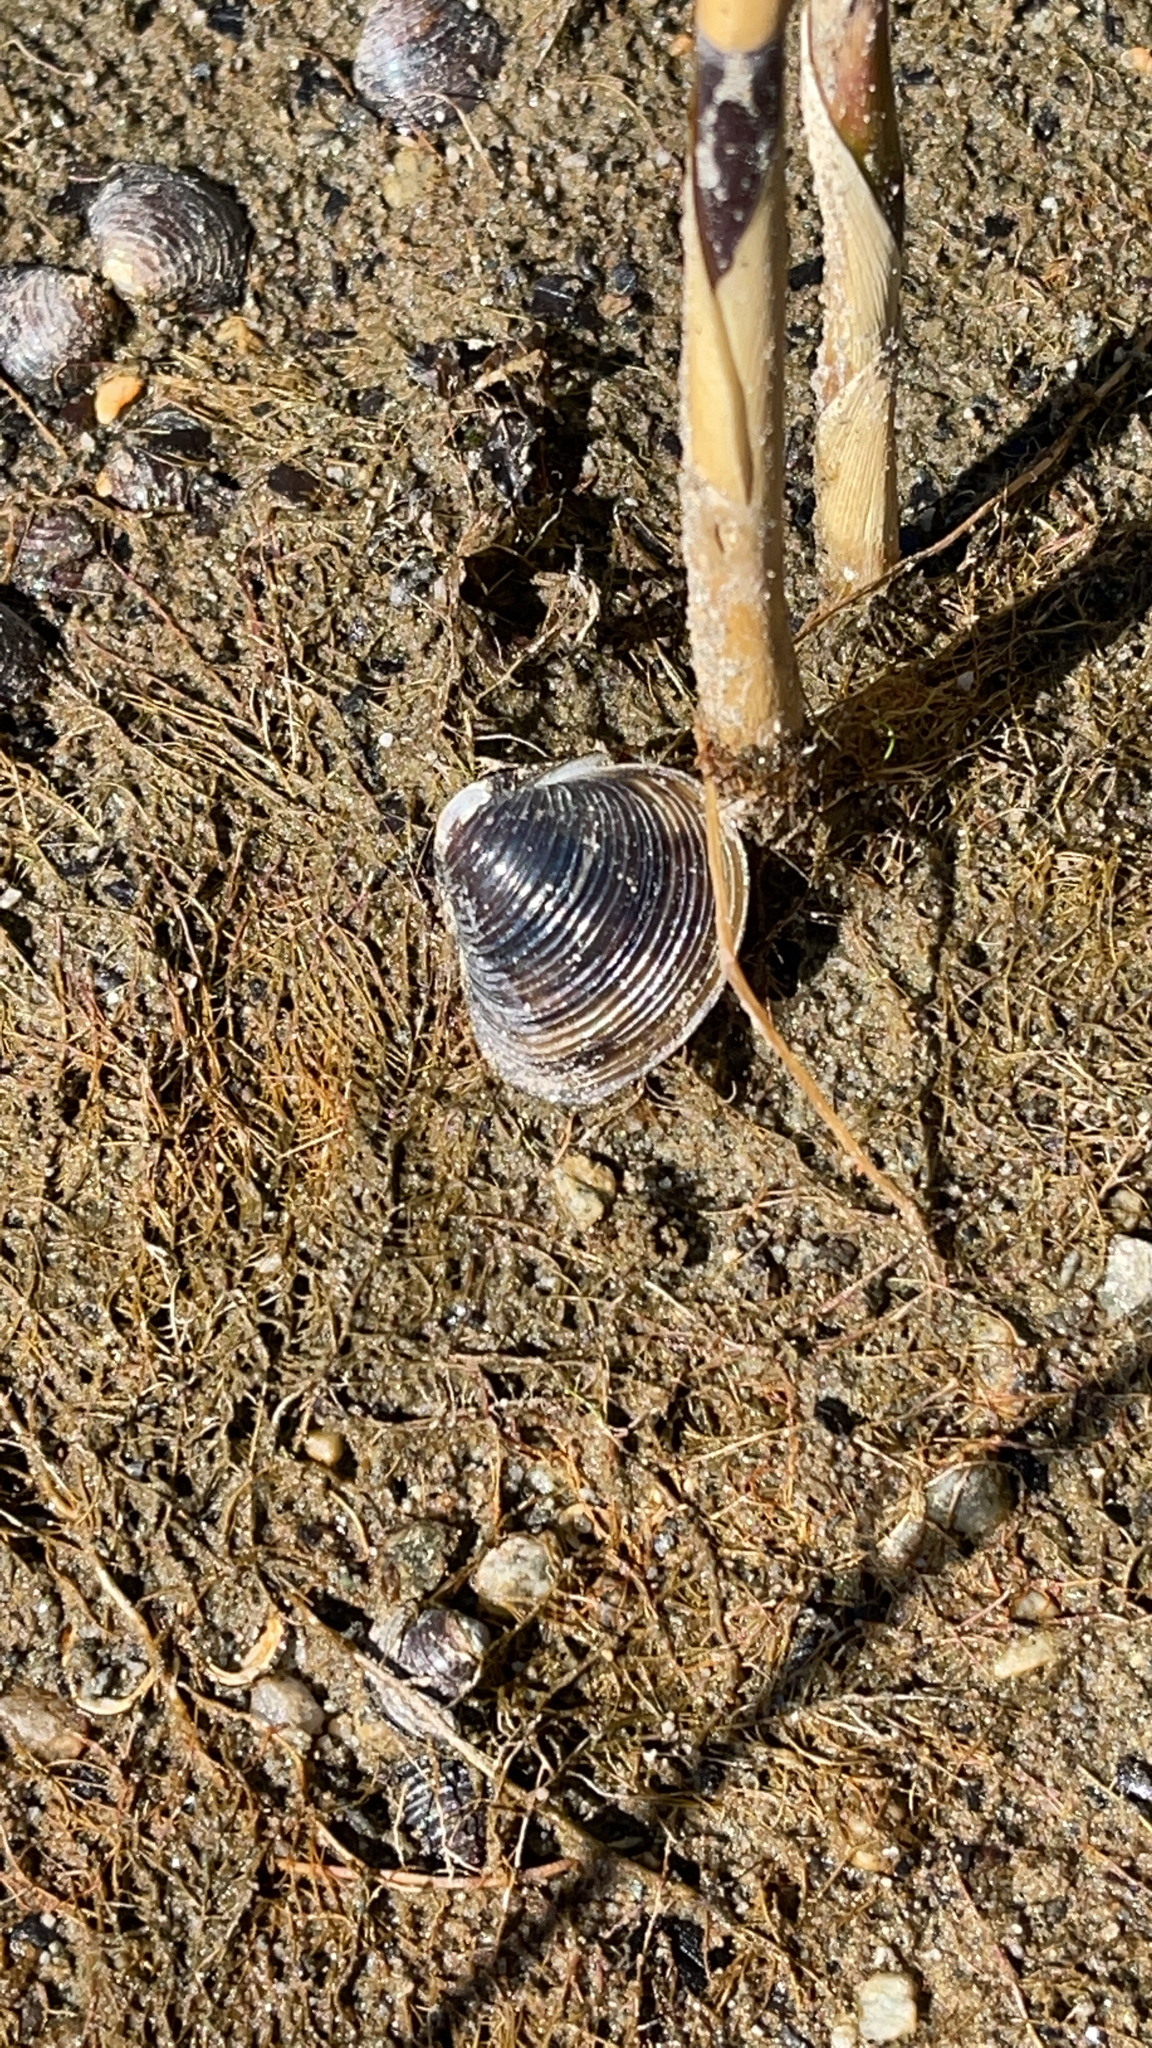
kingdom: Animalia
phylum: Mollusca
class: Bivalvia
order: Venerida
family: Cyrenidae
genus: Corbicula
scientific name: Corbicula fluminea
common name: Asian clam
